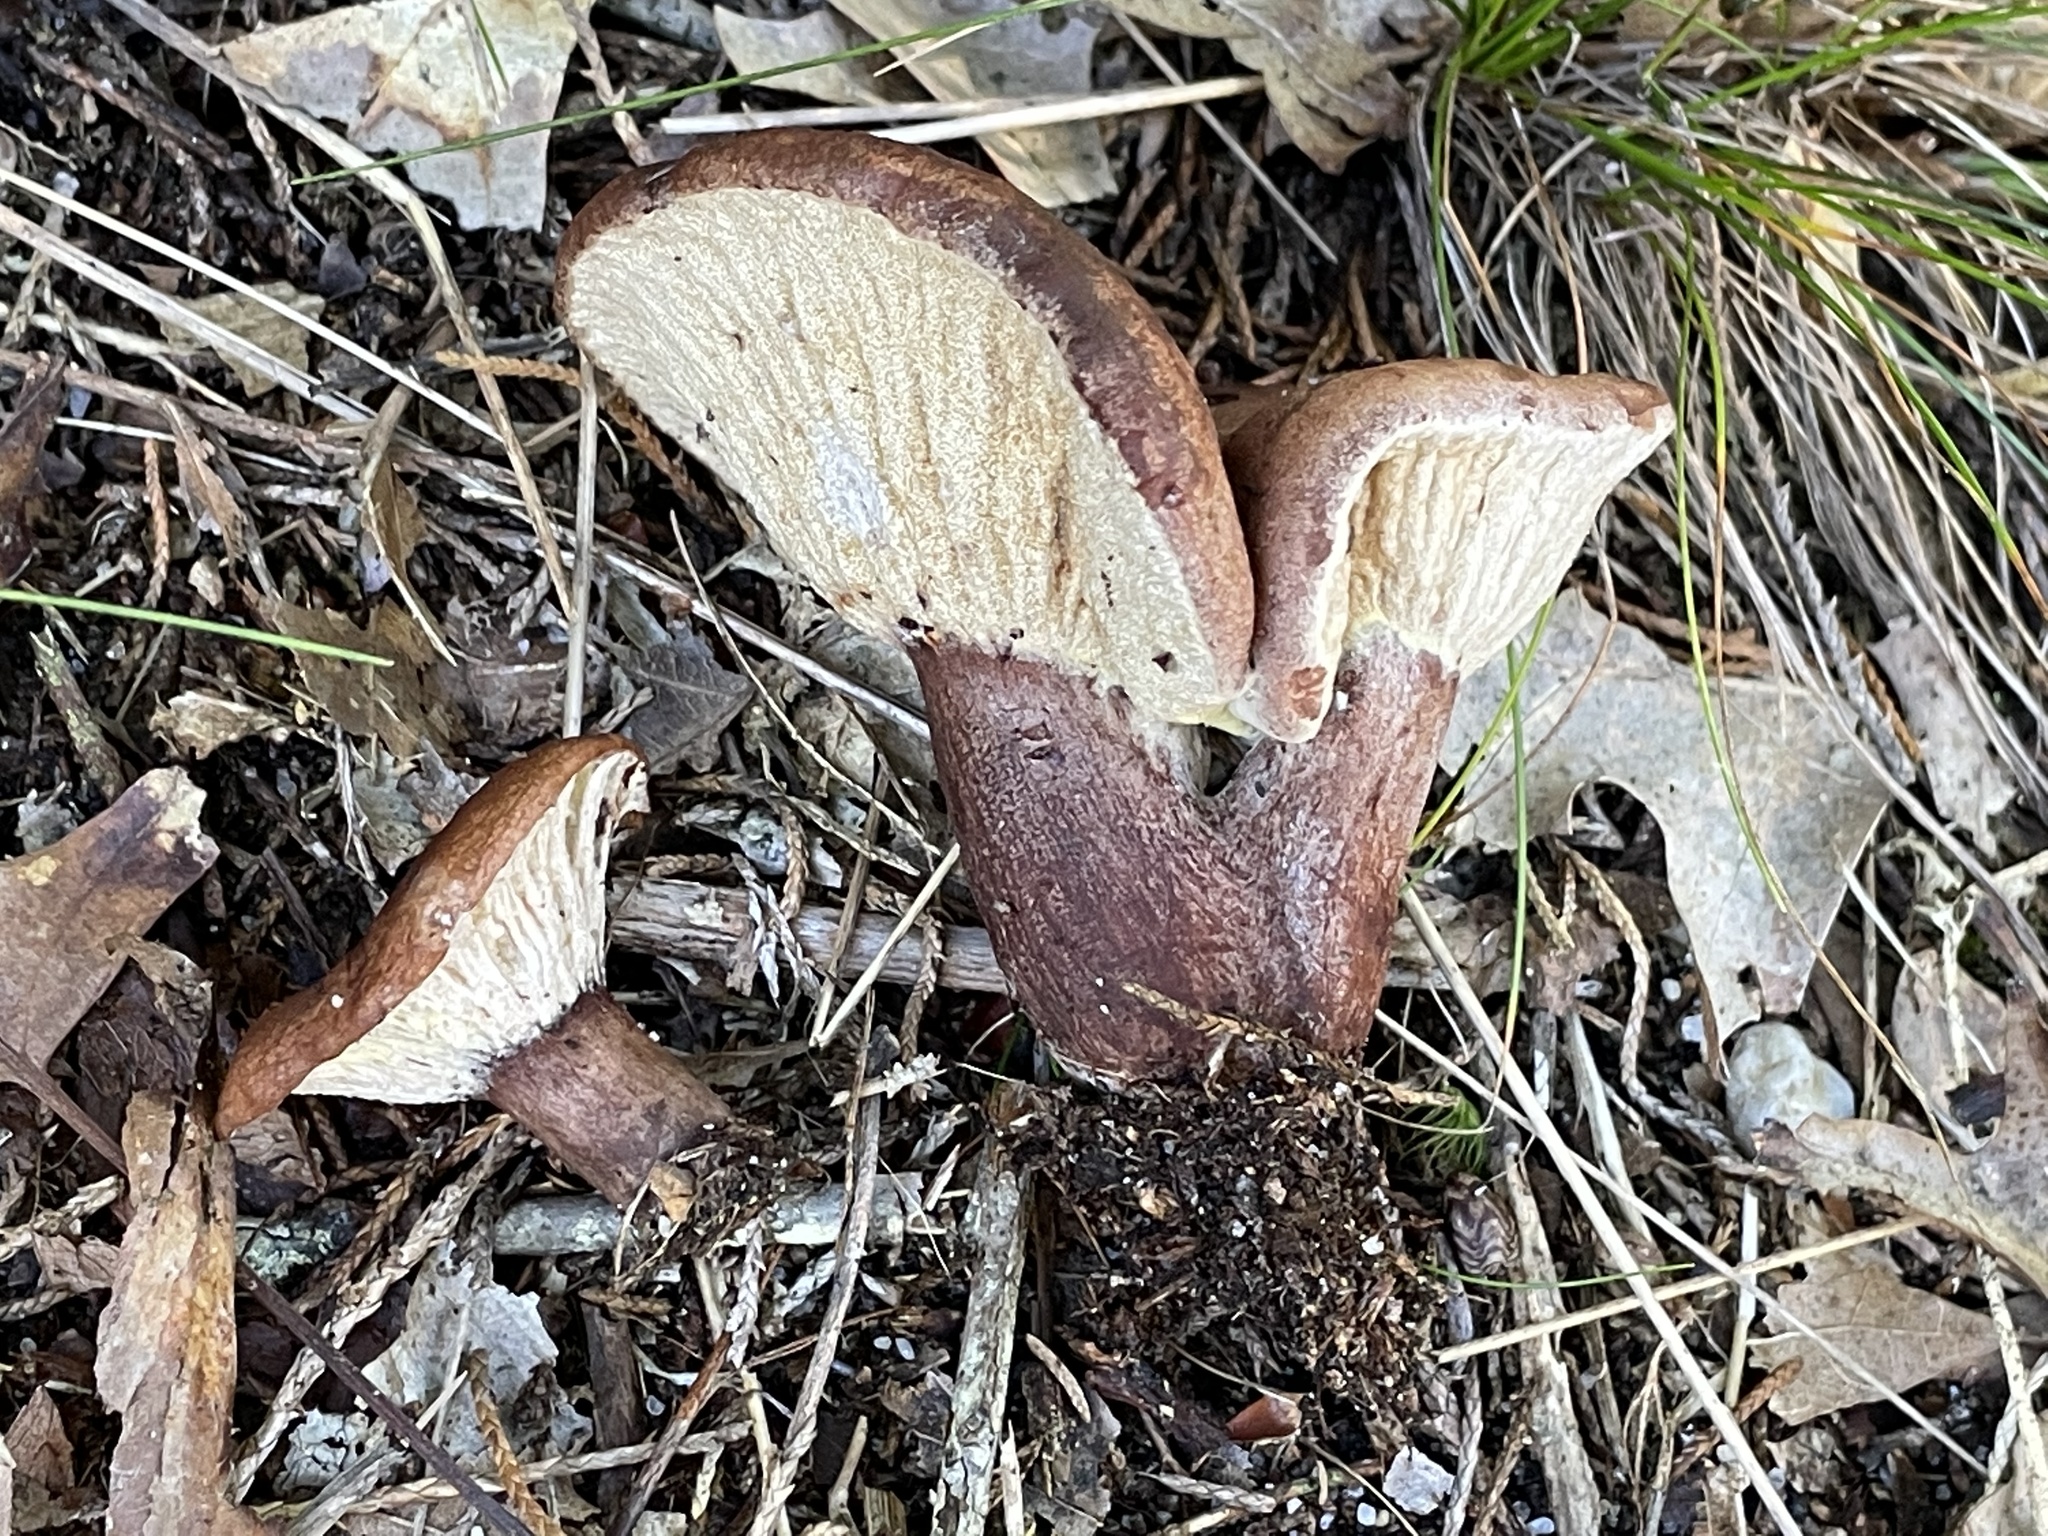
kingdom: Fungi
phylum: Ascomycota
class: Sordariomycetes
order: Hypocreales
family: Hypocreaceae
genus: Hypomyces
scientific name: Hypomyces lateritius
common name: Ochre gillgobbler
